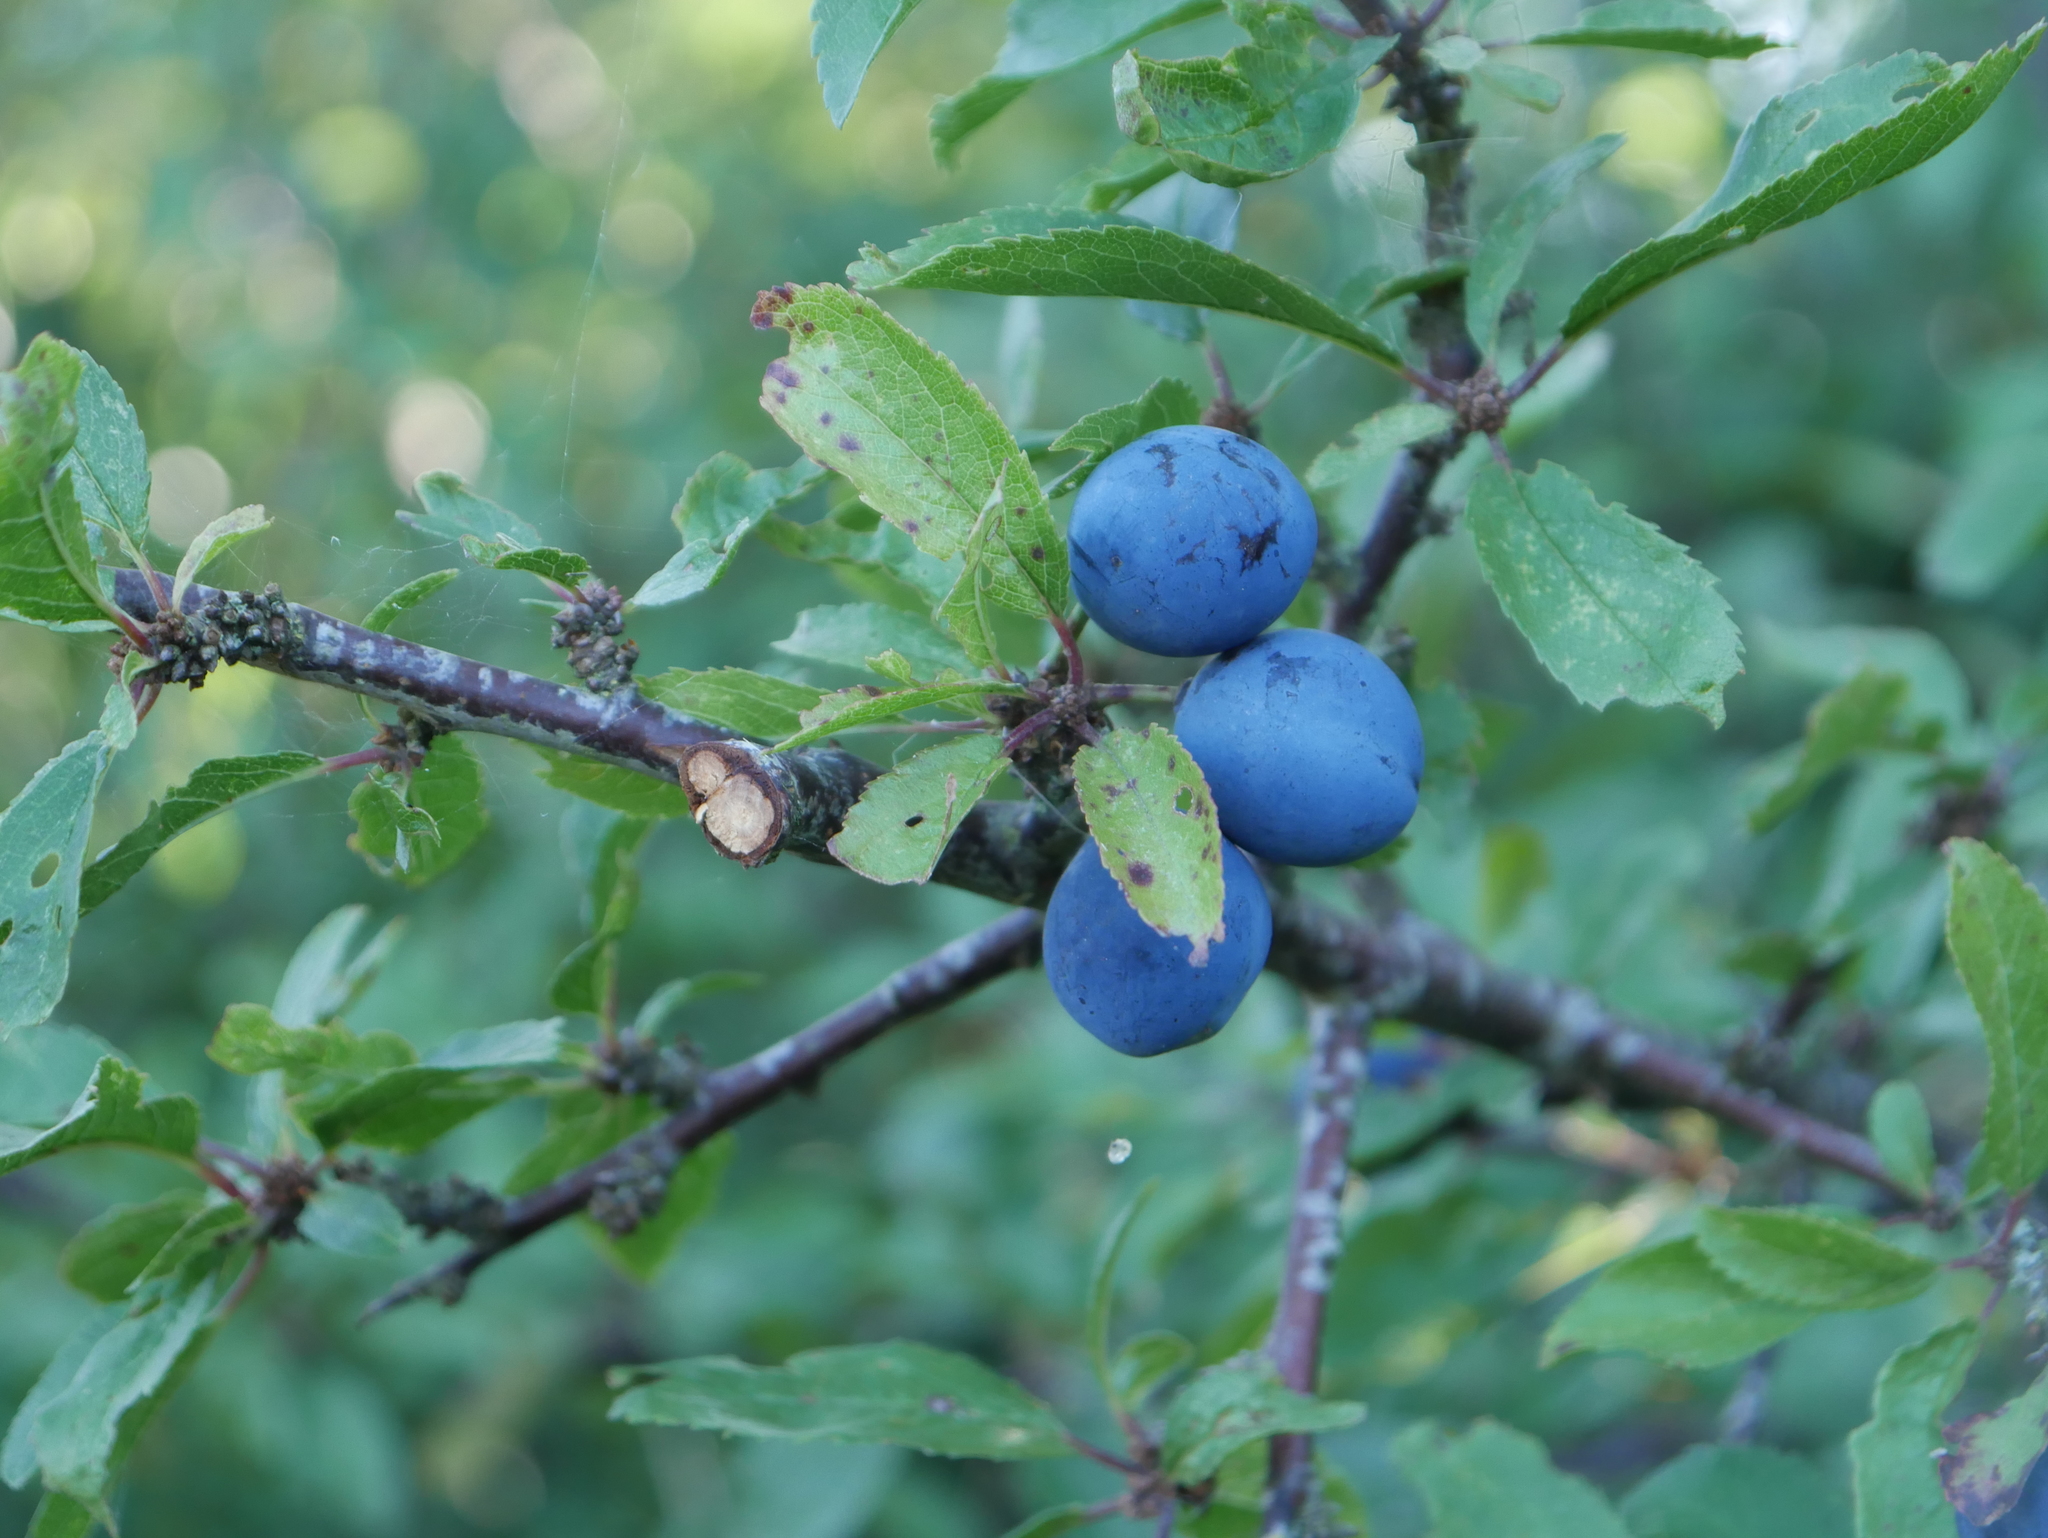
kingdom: Plantae
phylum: Tracheophyta
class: Magnoliopsida
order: Rosales
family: Rosaceae
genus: Prunus
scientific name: Prunus spinosa
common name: Blackthorn
